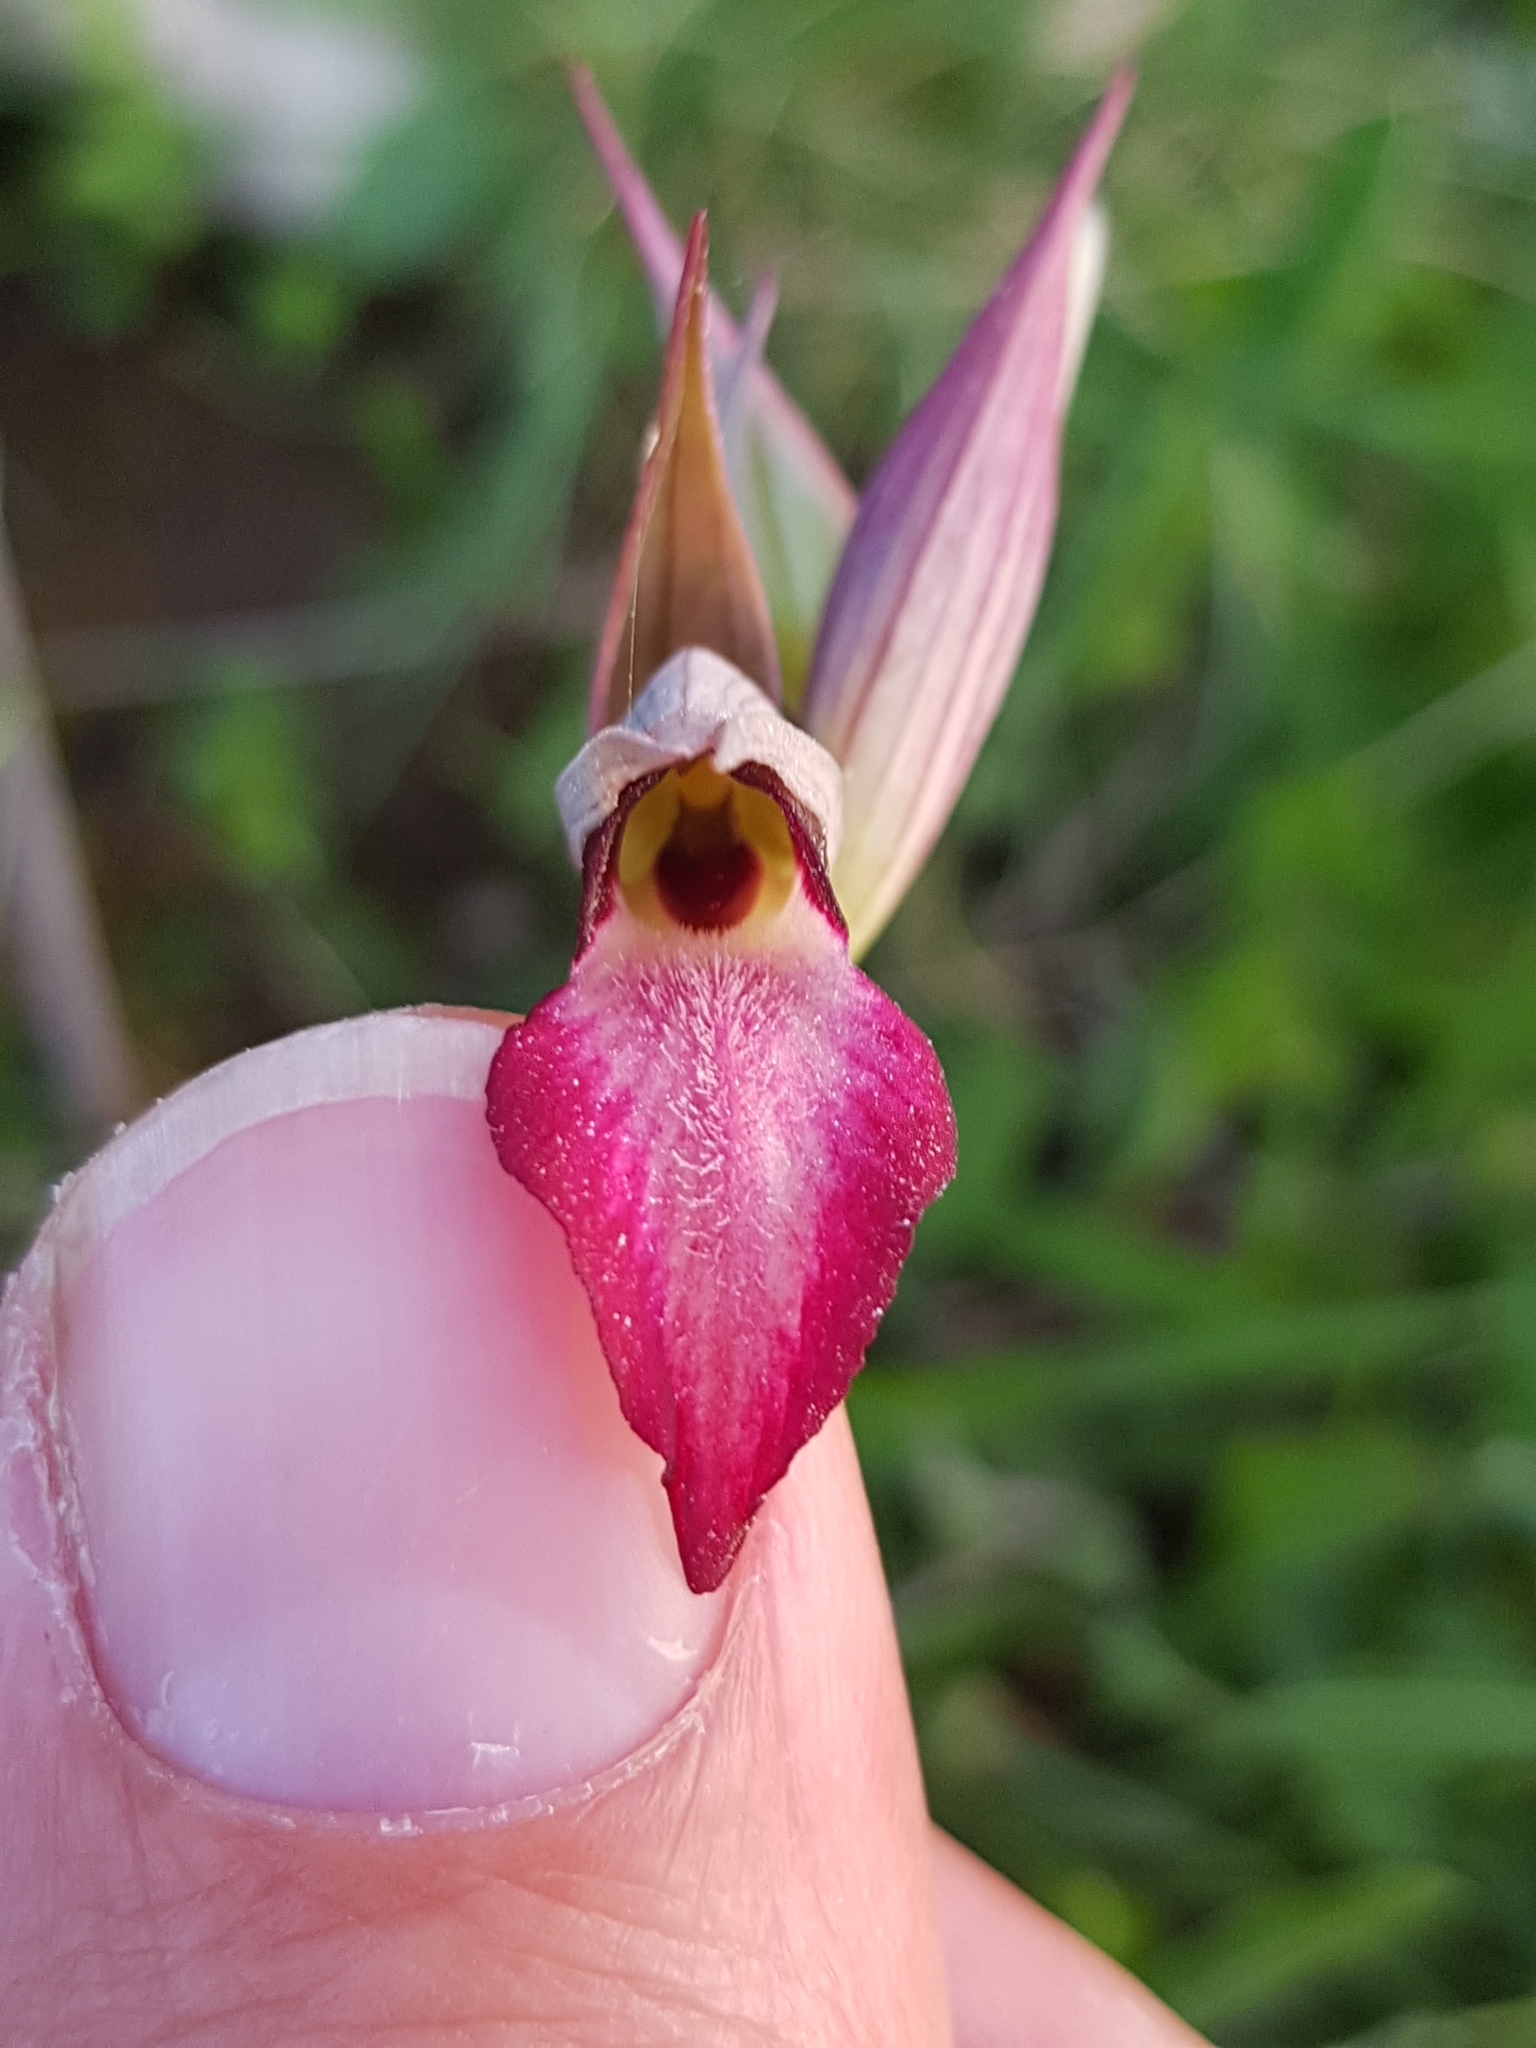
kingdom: Plantae
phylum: Tracheophyta
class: Liliopsida
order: Asparagales
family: Orchidaceae
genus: Serapias
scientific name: Serapias lingua
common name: Tongue-orchid
